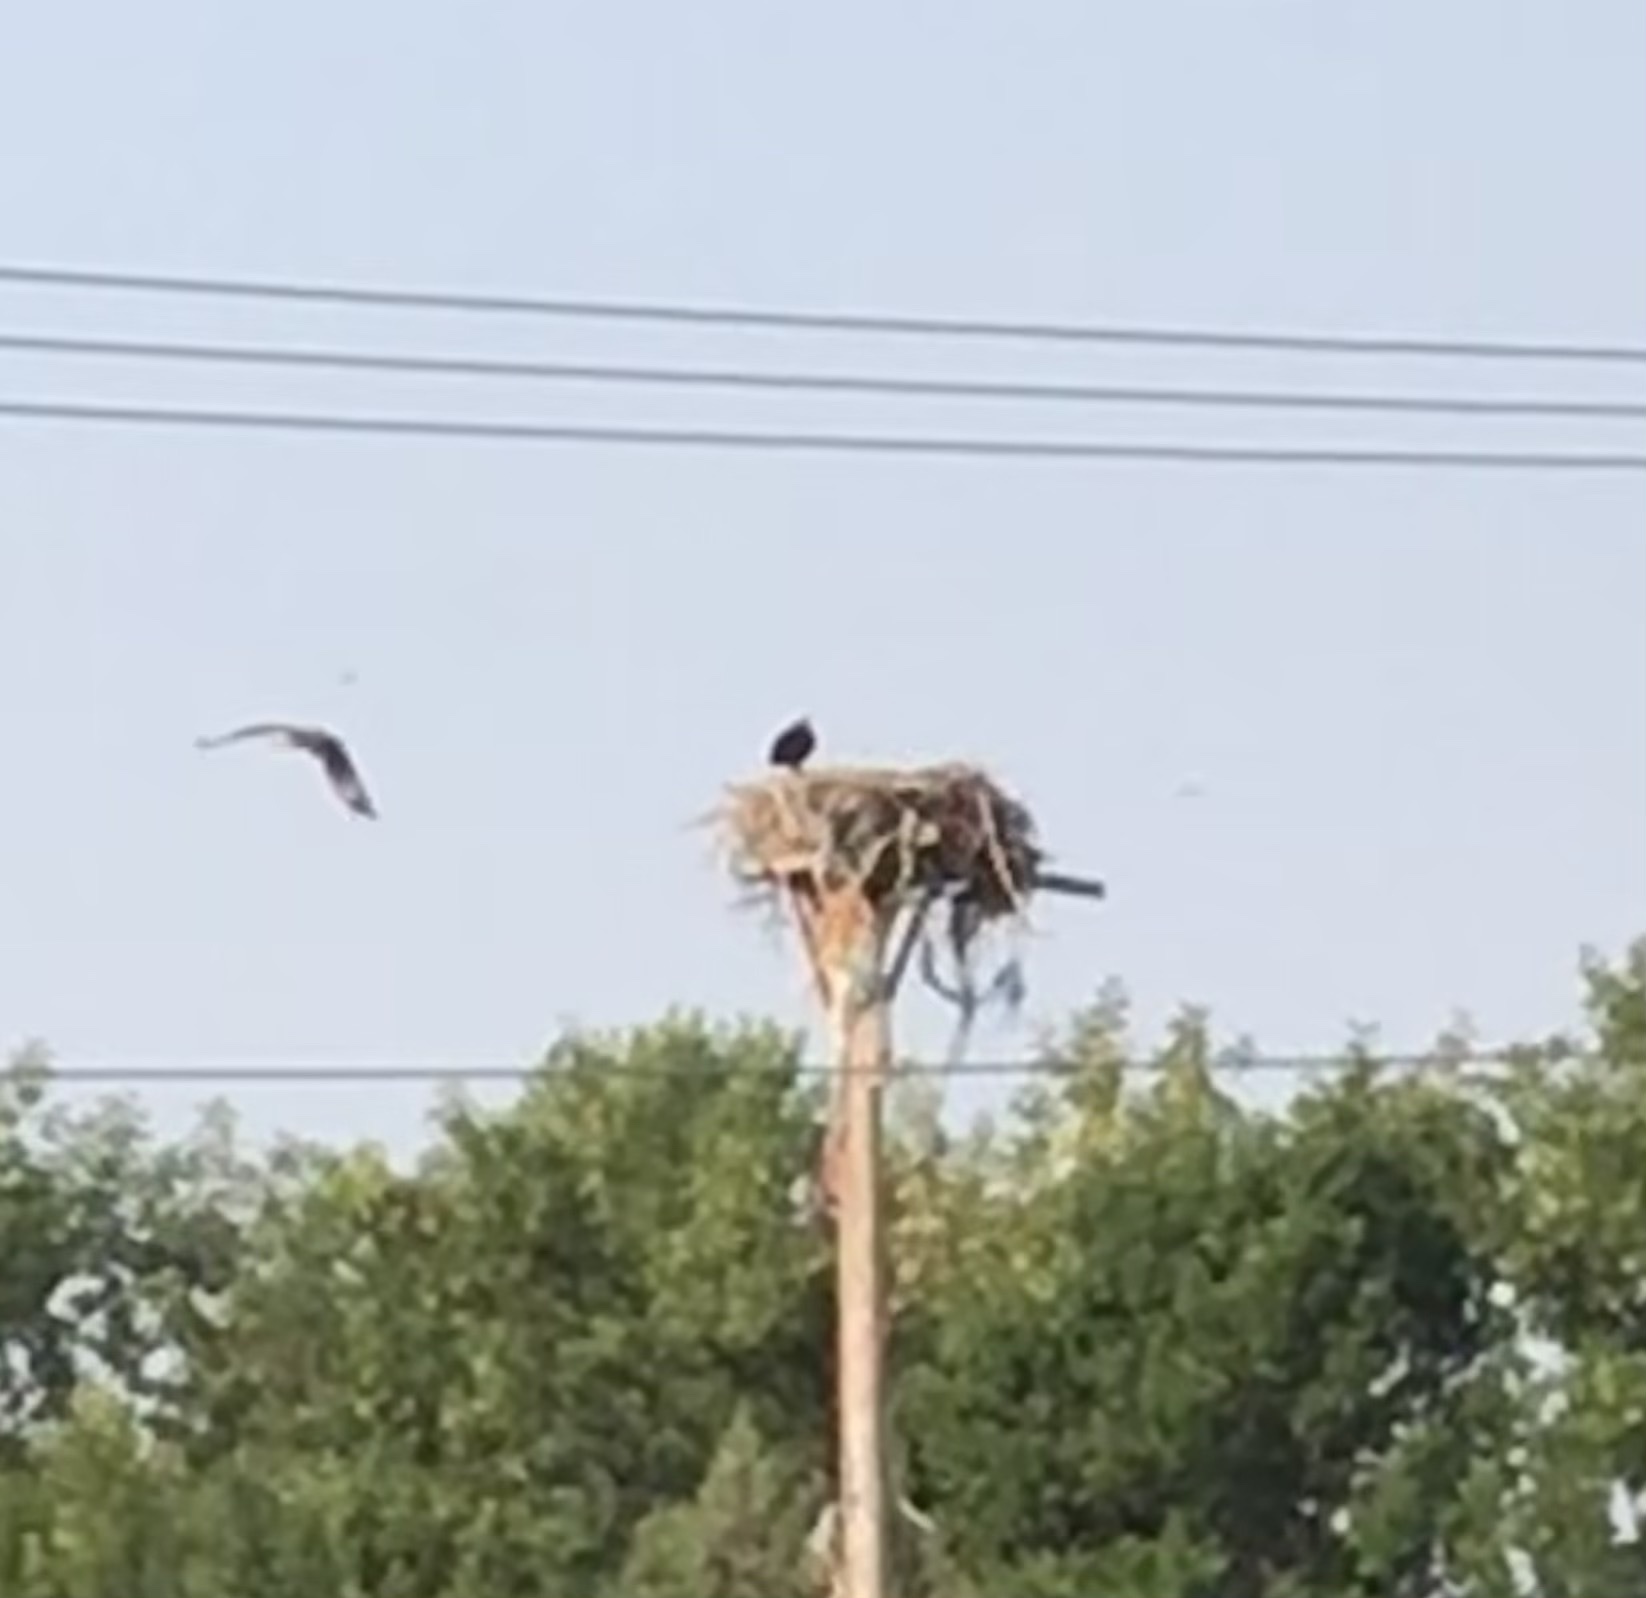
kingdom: Animalia
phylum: Chordata
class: Aves
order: Accipitriformes
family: Pandionidae
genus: Pandion
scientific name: Pandion haliaetus
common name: Osprey
